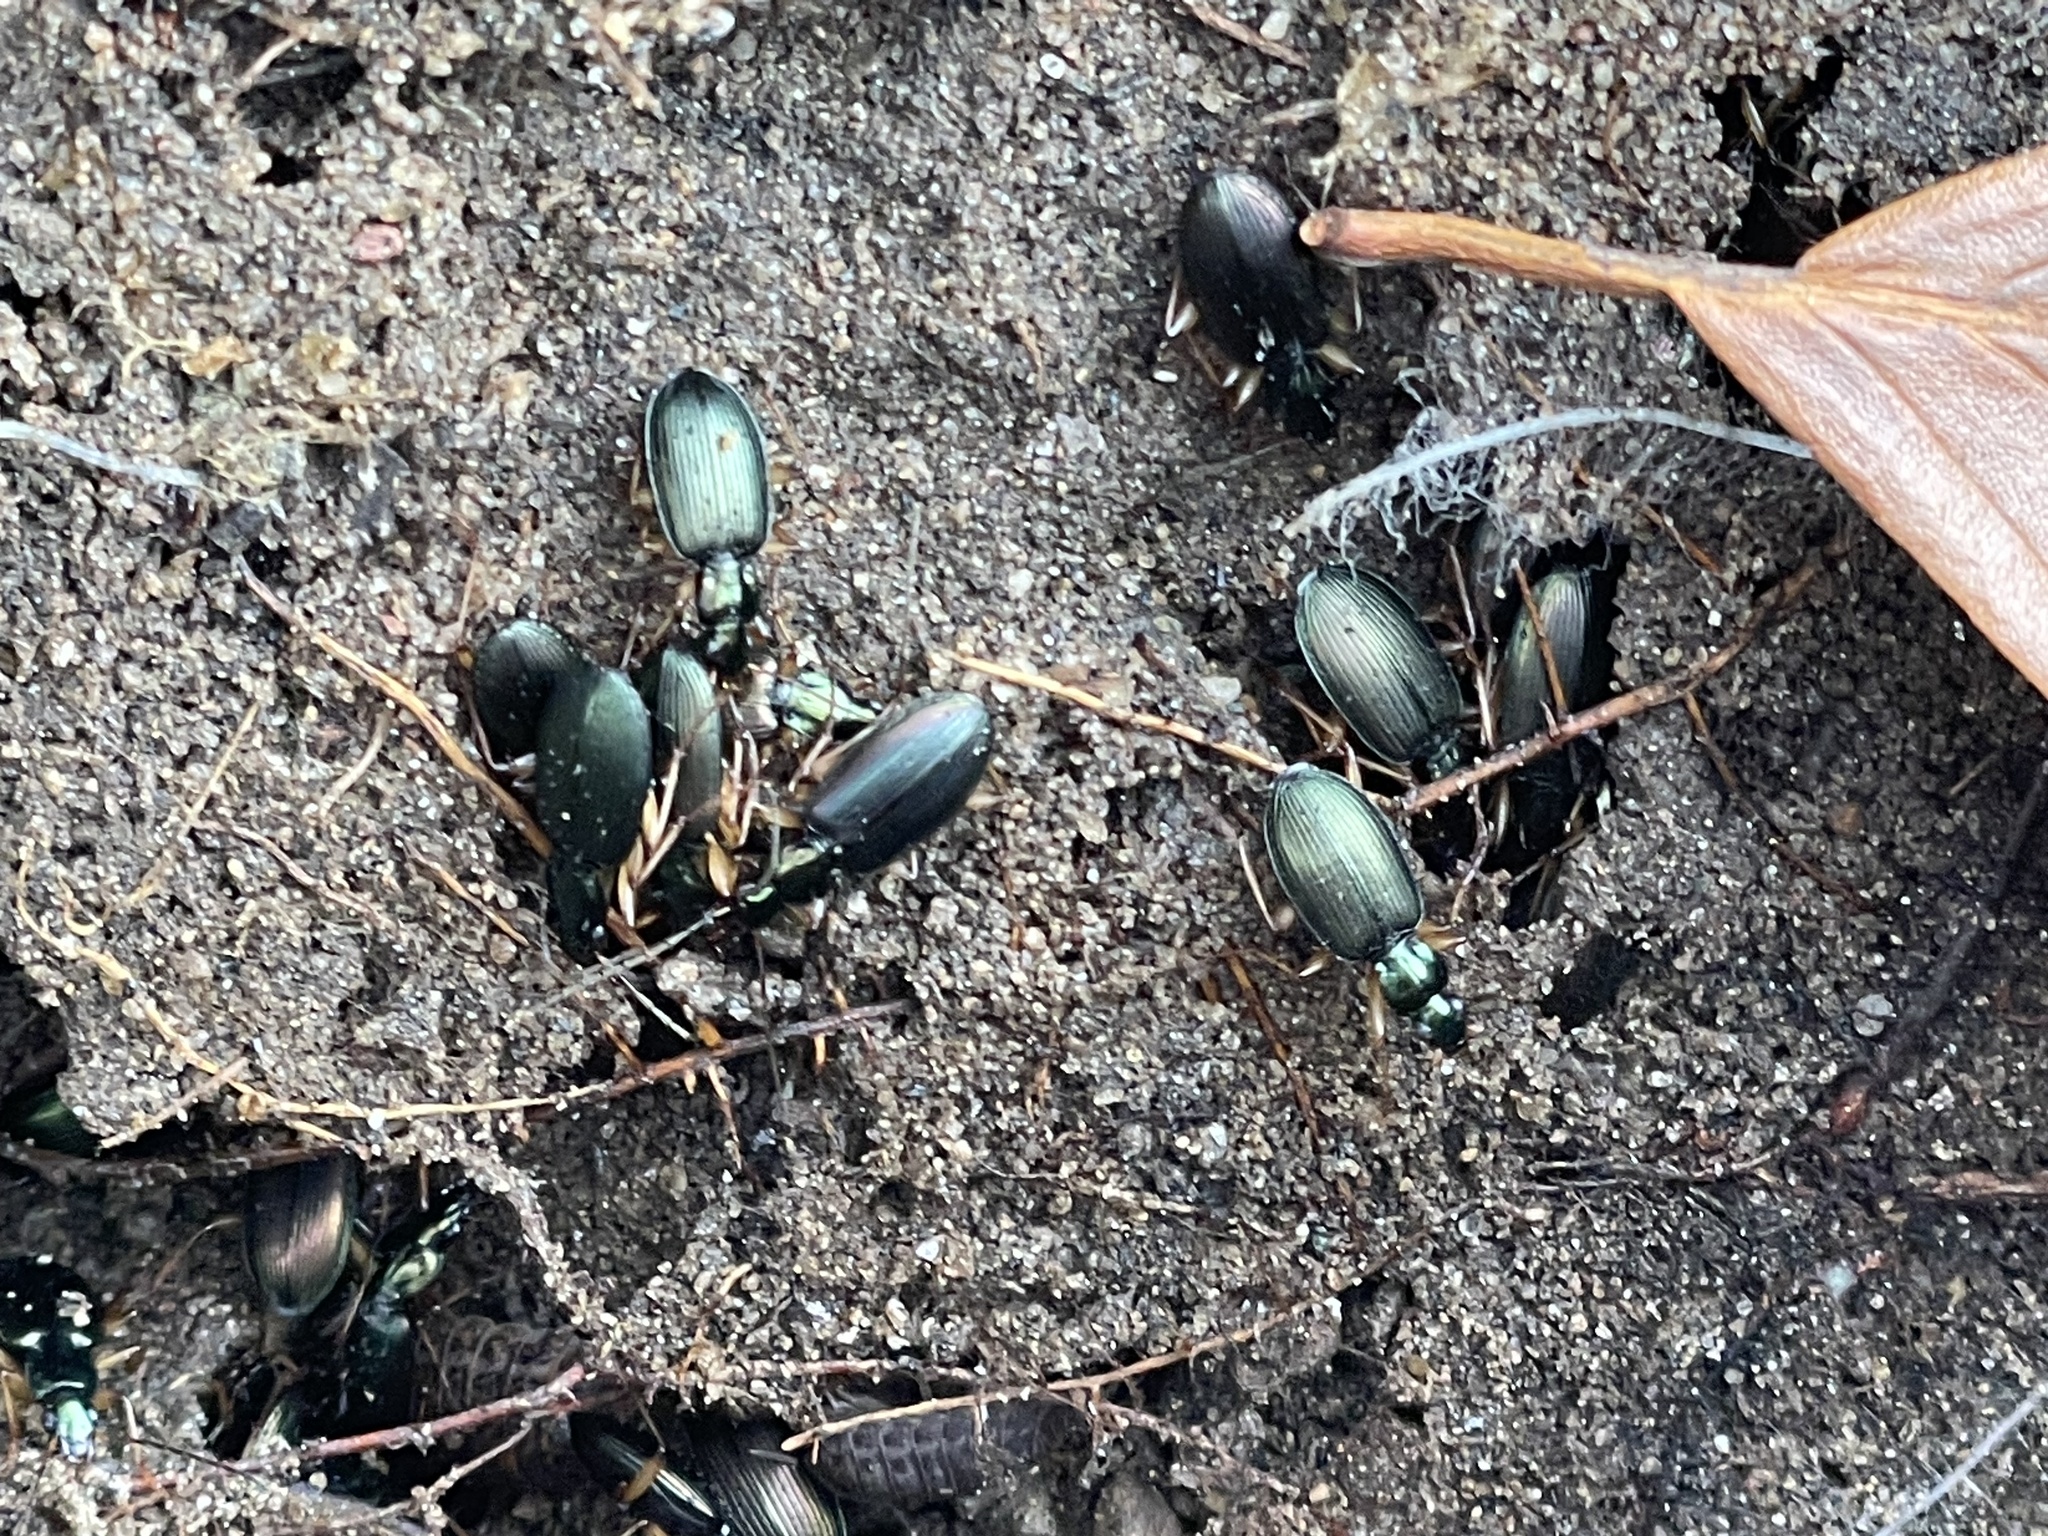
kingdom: Animalia
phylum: Arthropoda
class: Insecta
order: Coleoptera
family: Carabidae
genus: Agonum
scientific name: Agonum extensicolle
